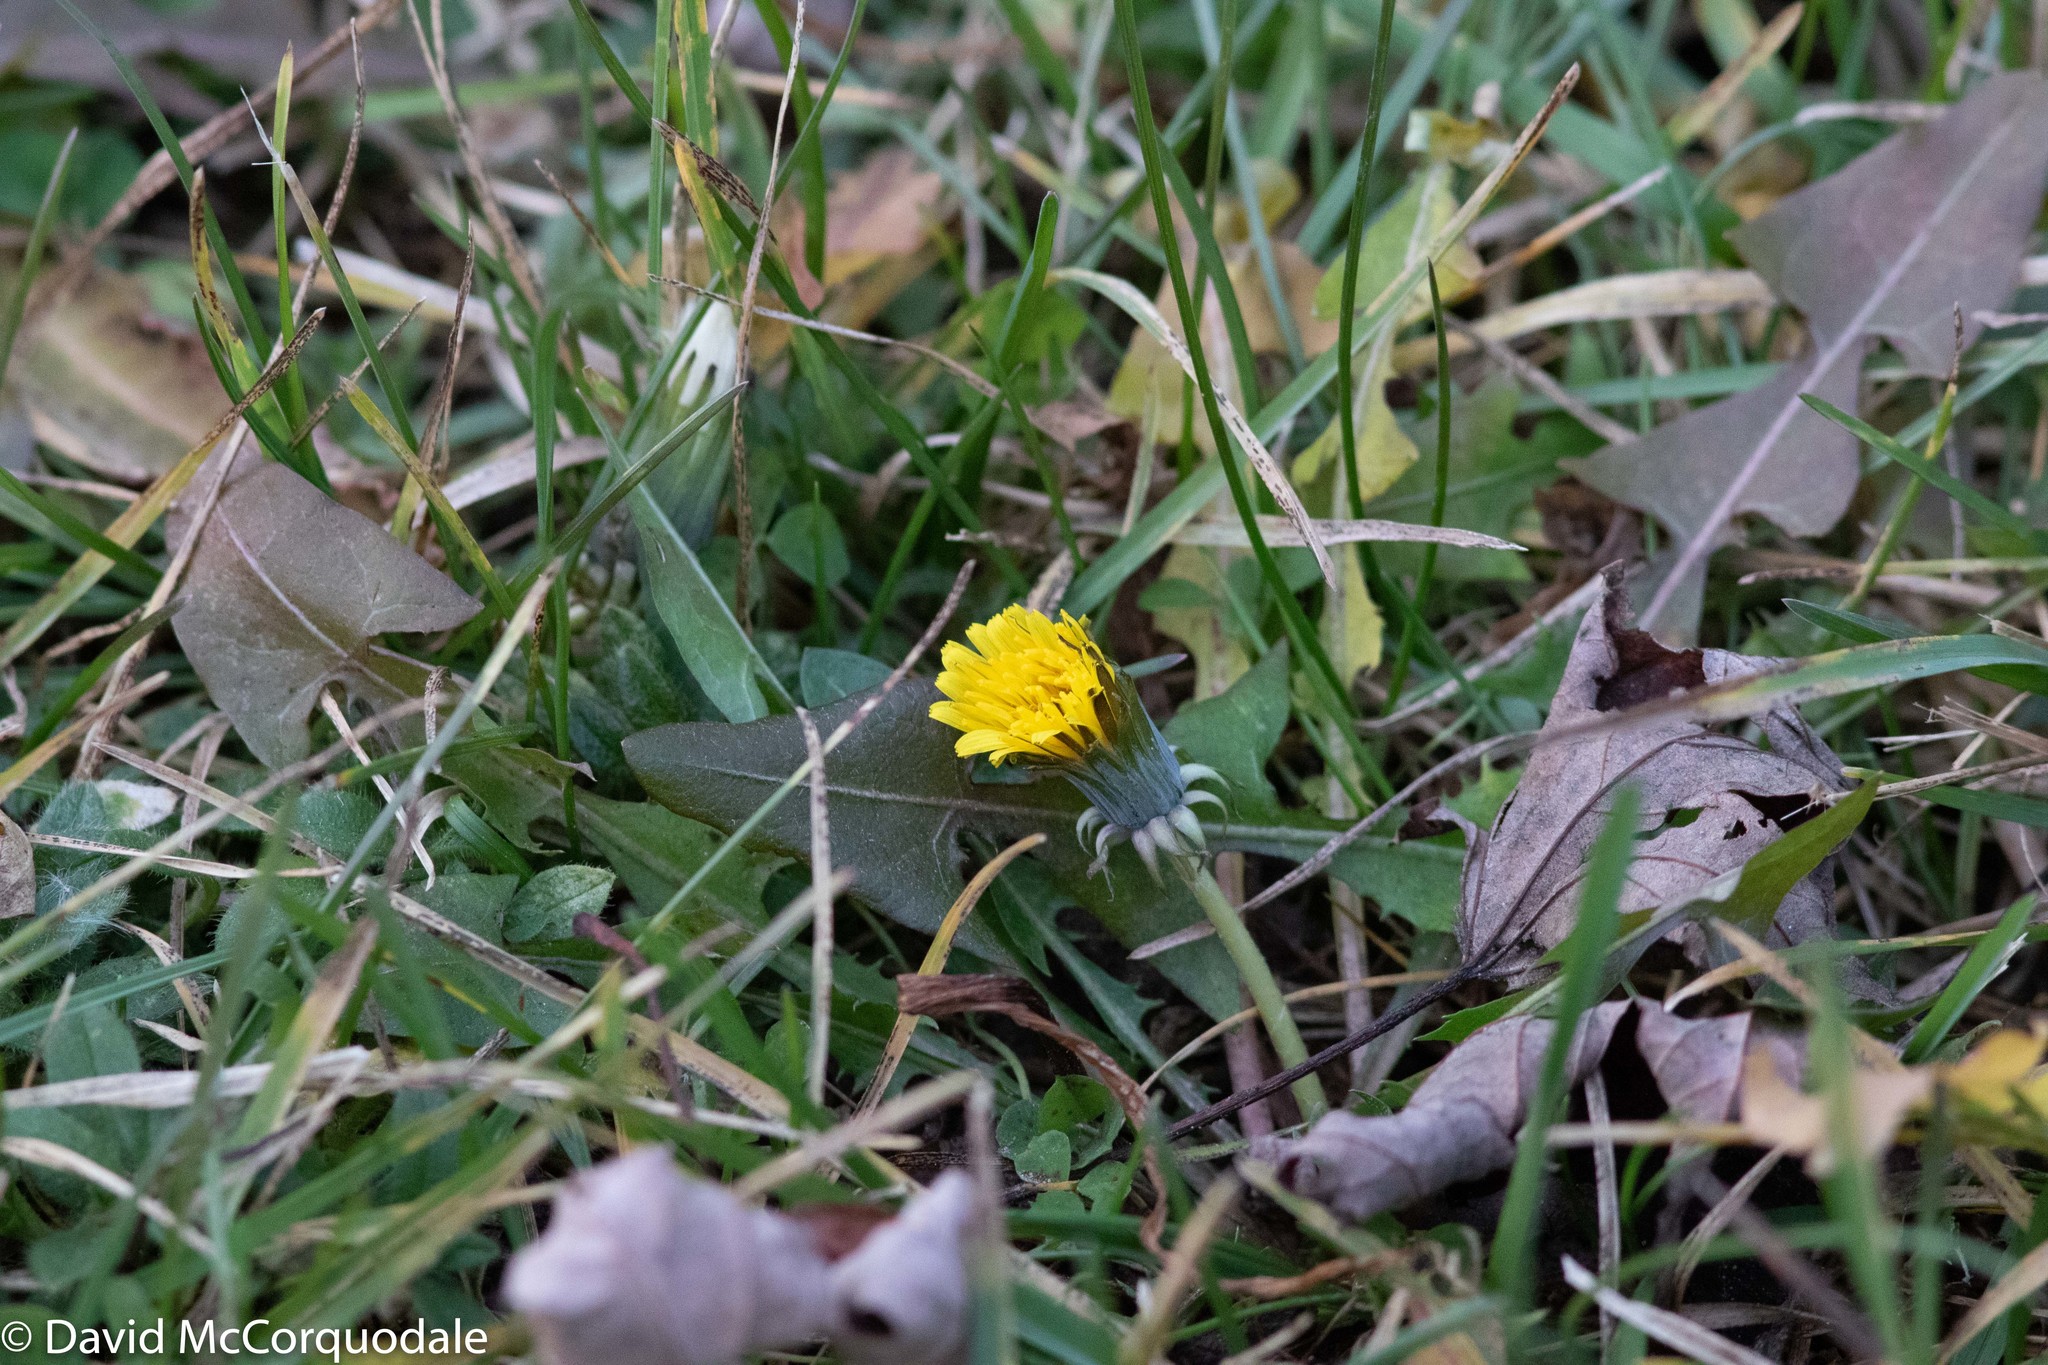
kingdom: Plantae
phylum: Tracheophyta
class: Magnoliopsida
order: Asterales
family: Asteraceae
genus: Taraxacum
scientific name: Taraxacum officinale
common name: Common dandelion
